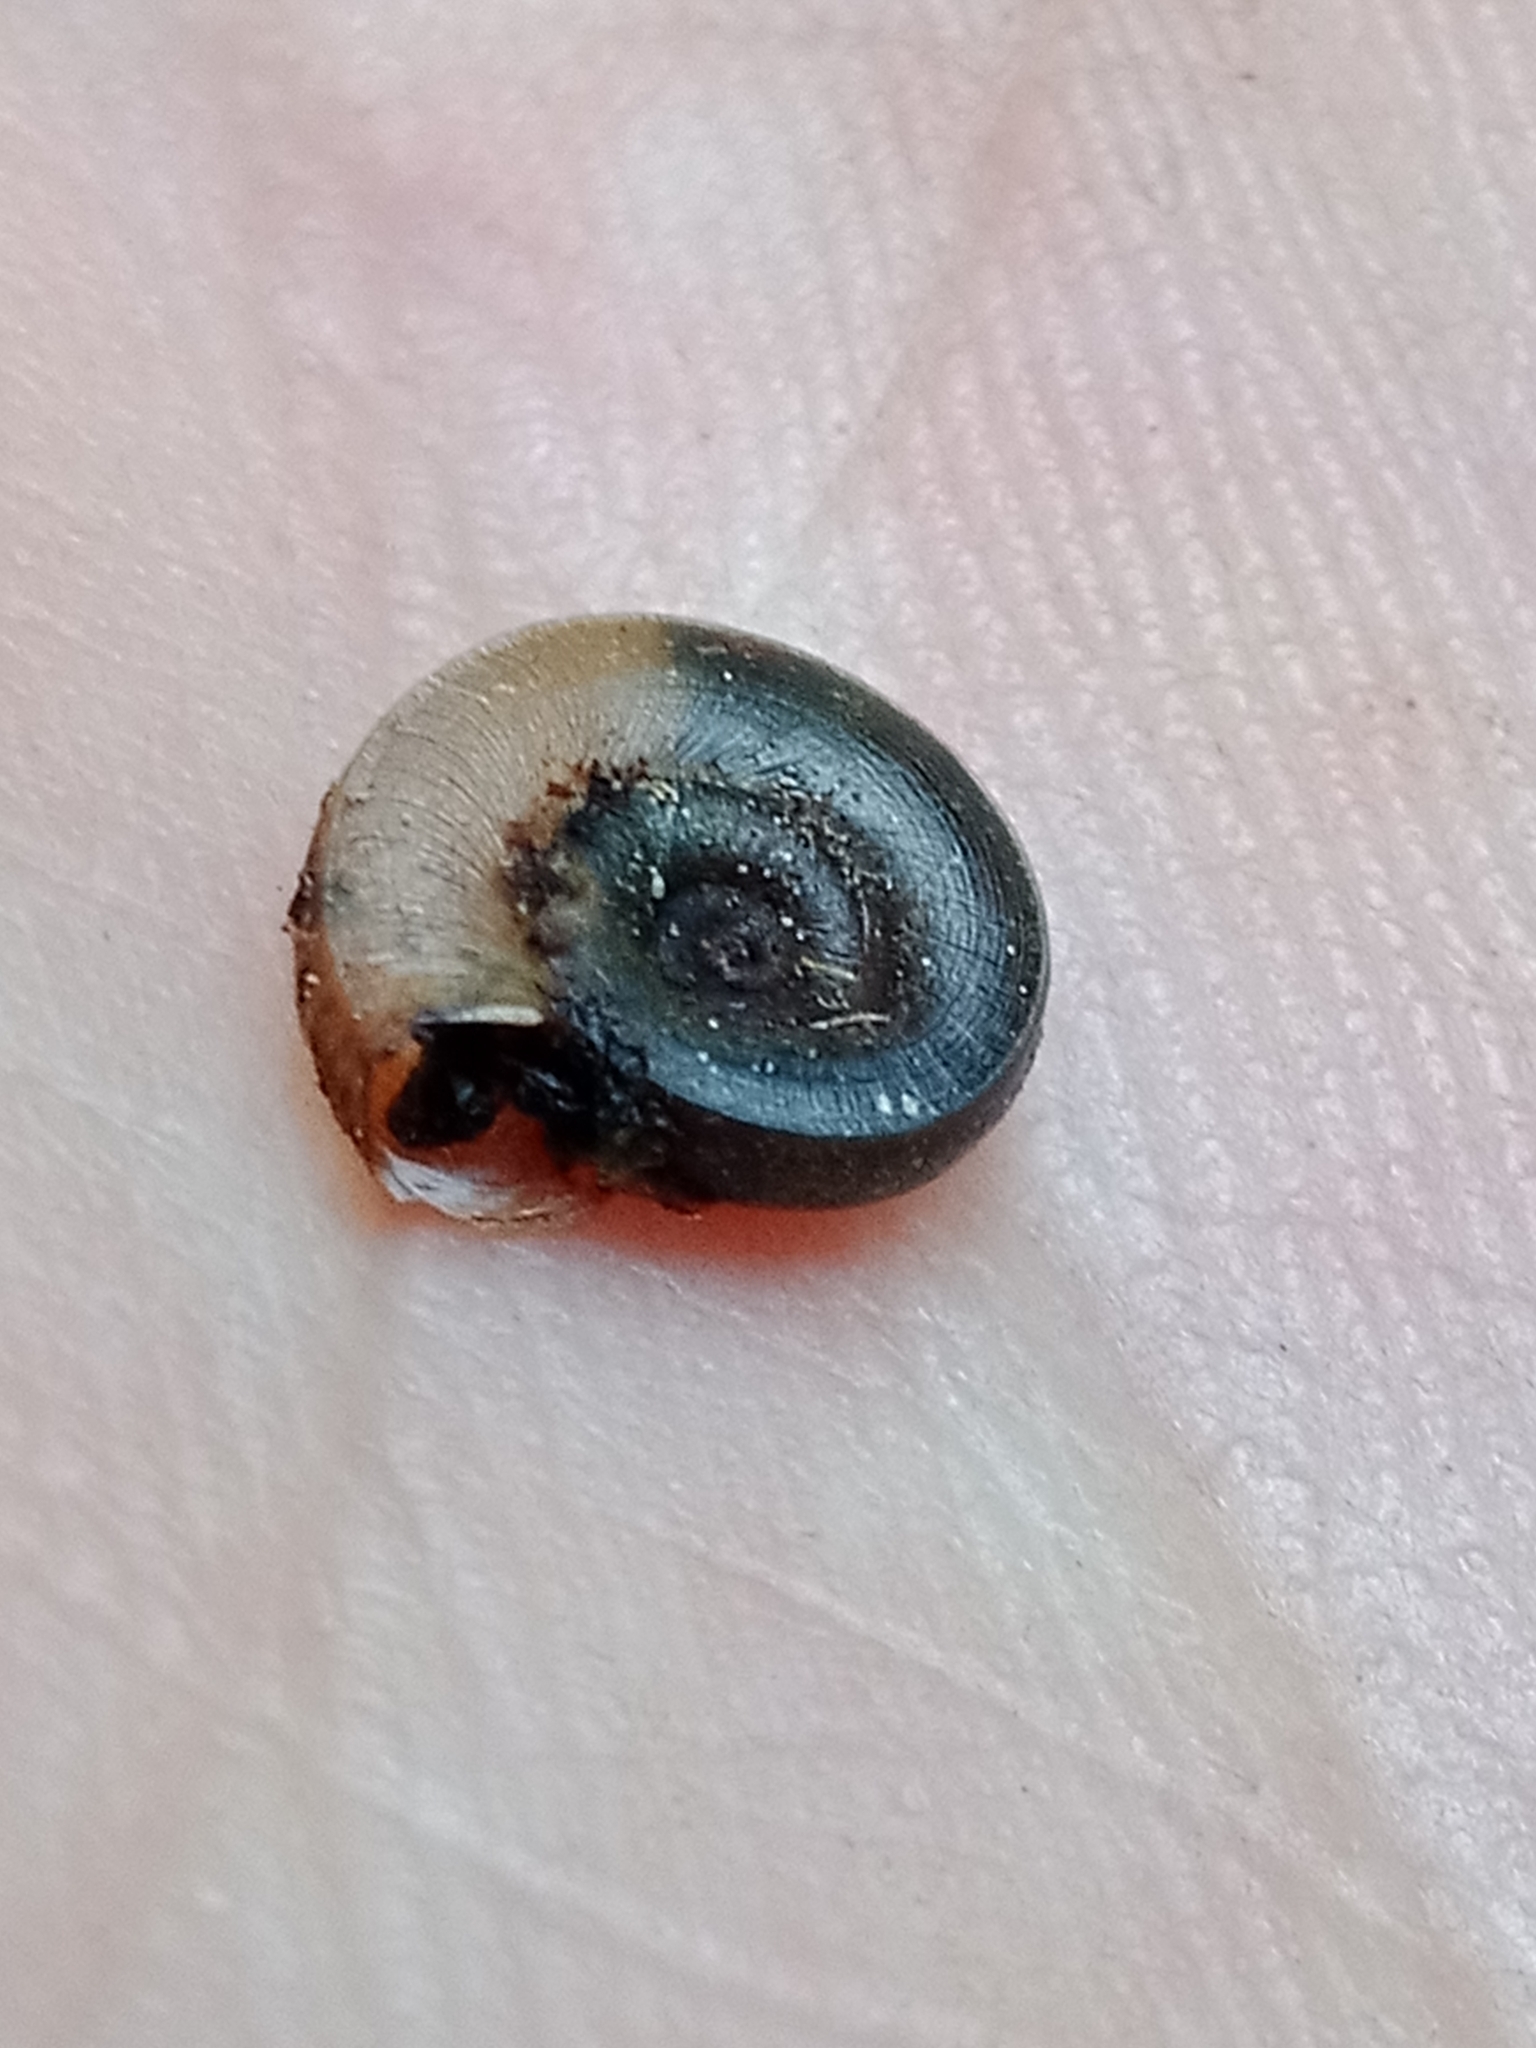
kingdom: Animalia
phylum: Mollusca
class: Gastropoda
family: Planorbidae
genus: Planorbis
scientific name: Planorbis planorbis
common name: Margined ramshorn
